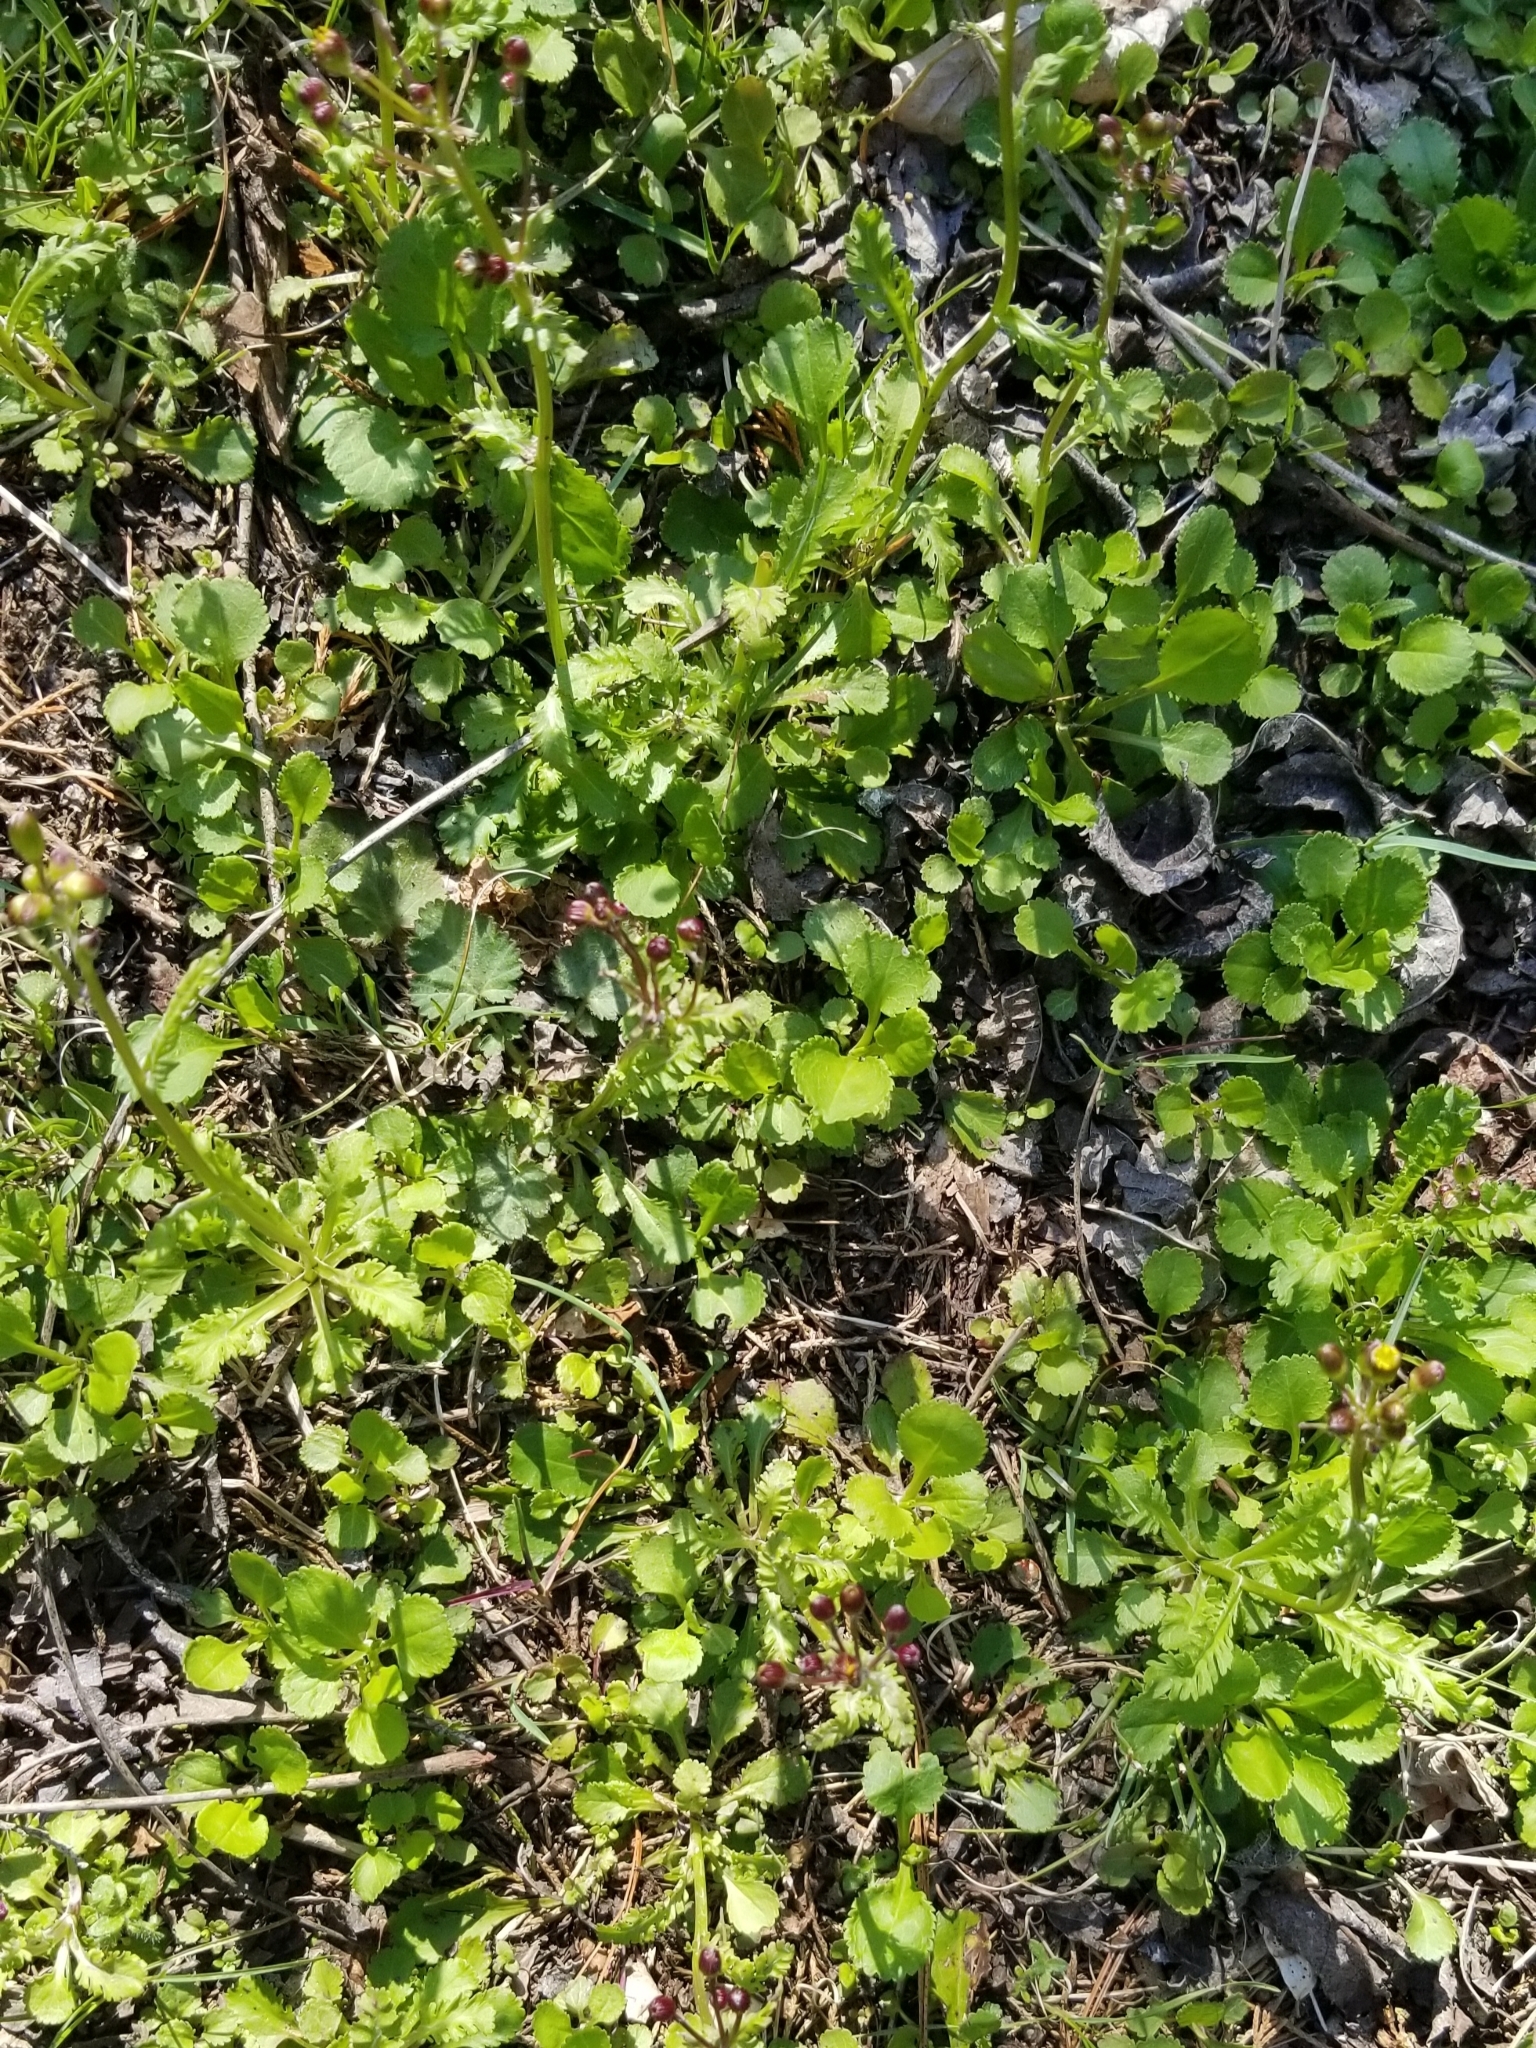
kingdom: Plantae
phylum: Tracheophyta
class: Magnoliopsida
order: Asterales
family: Asteraceae
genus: Packera
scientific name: Packera obovata
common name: Round-leaf ragwort
